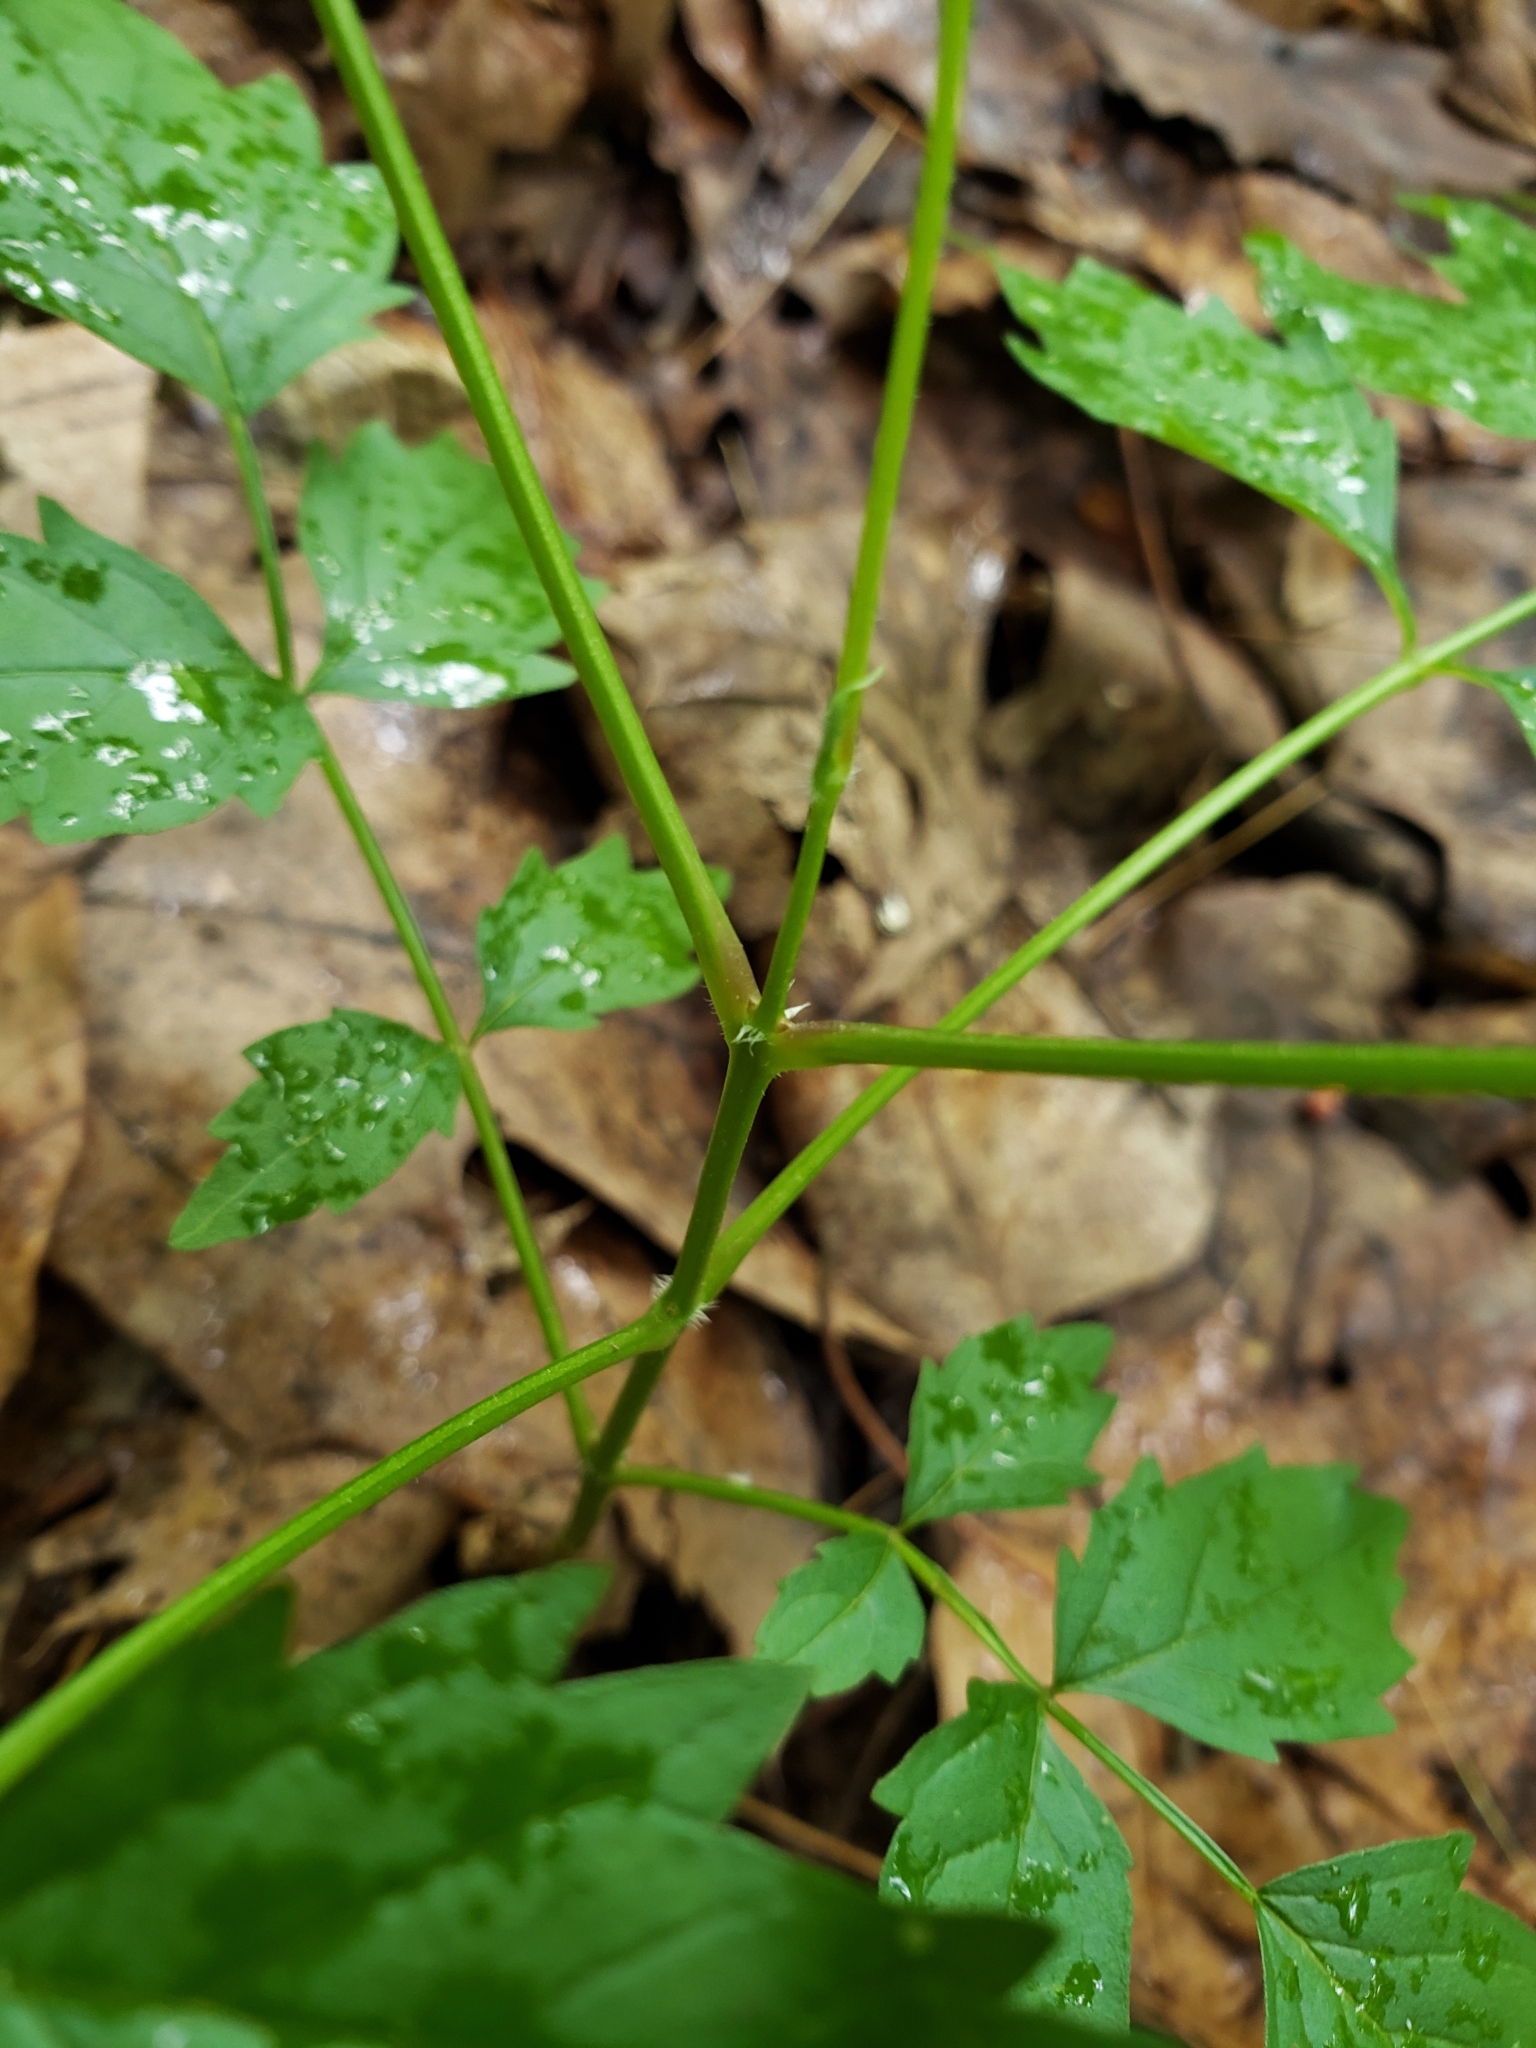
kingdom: Plantae
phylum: Tracheophyta
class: Magnoliopsida
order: Lamiales
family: Bignoniaceae
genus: Campsis
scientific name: Campsis radicans
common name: Trumpet-creeper
